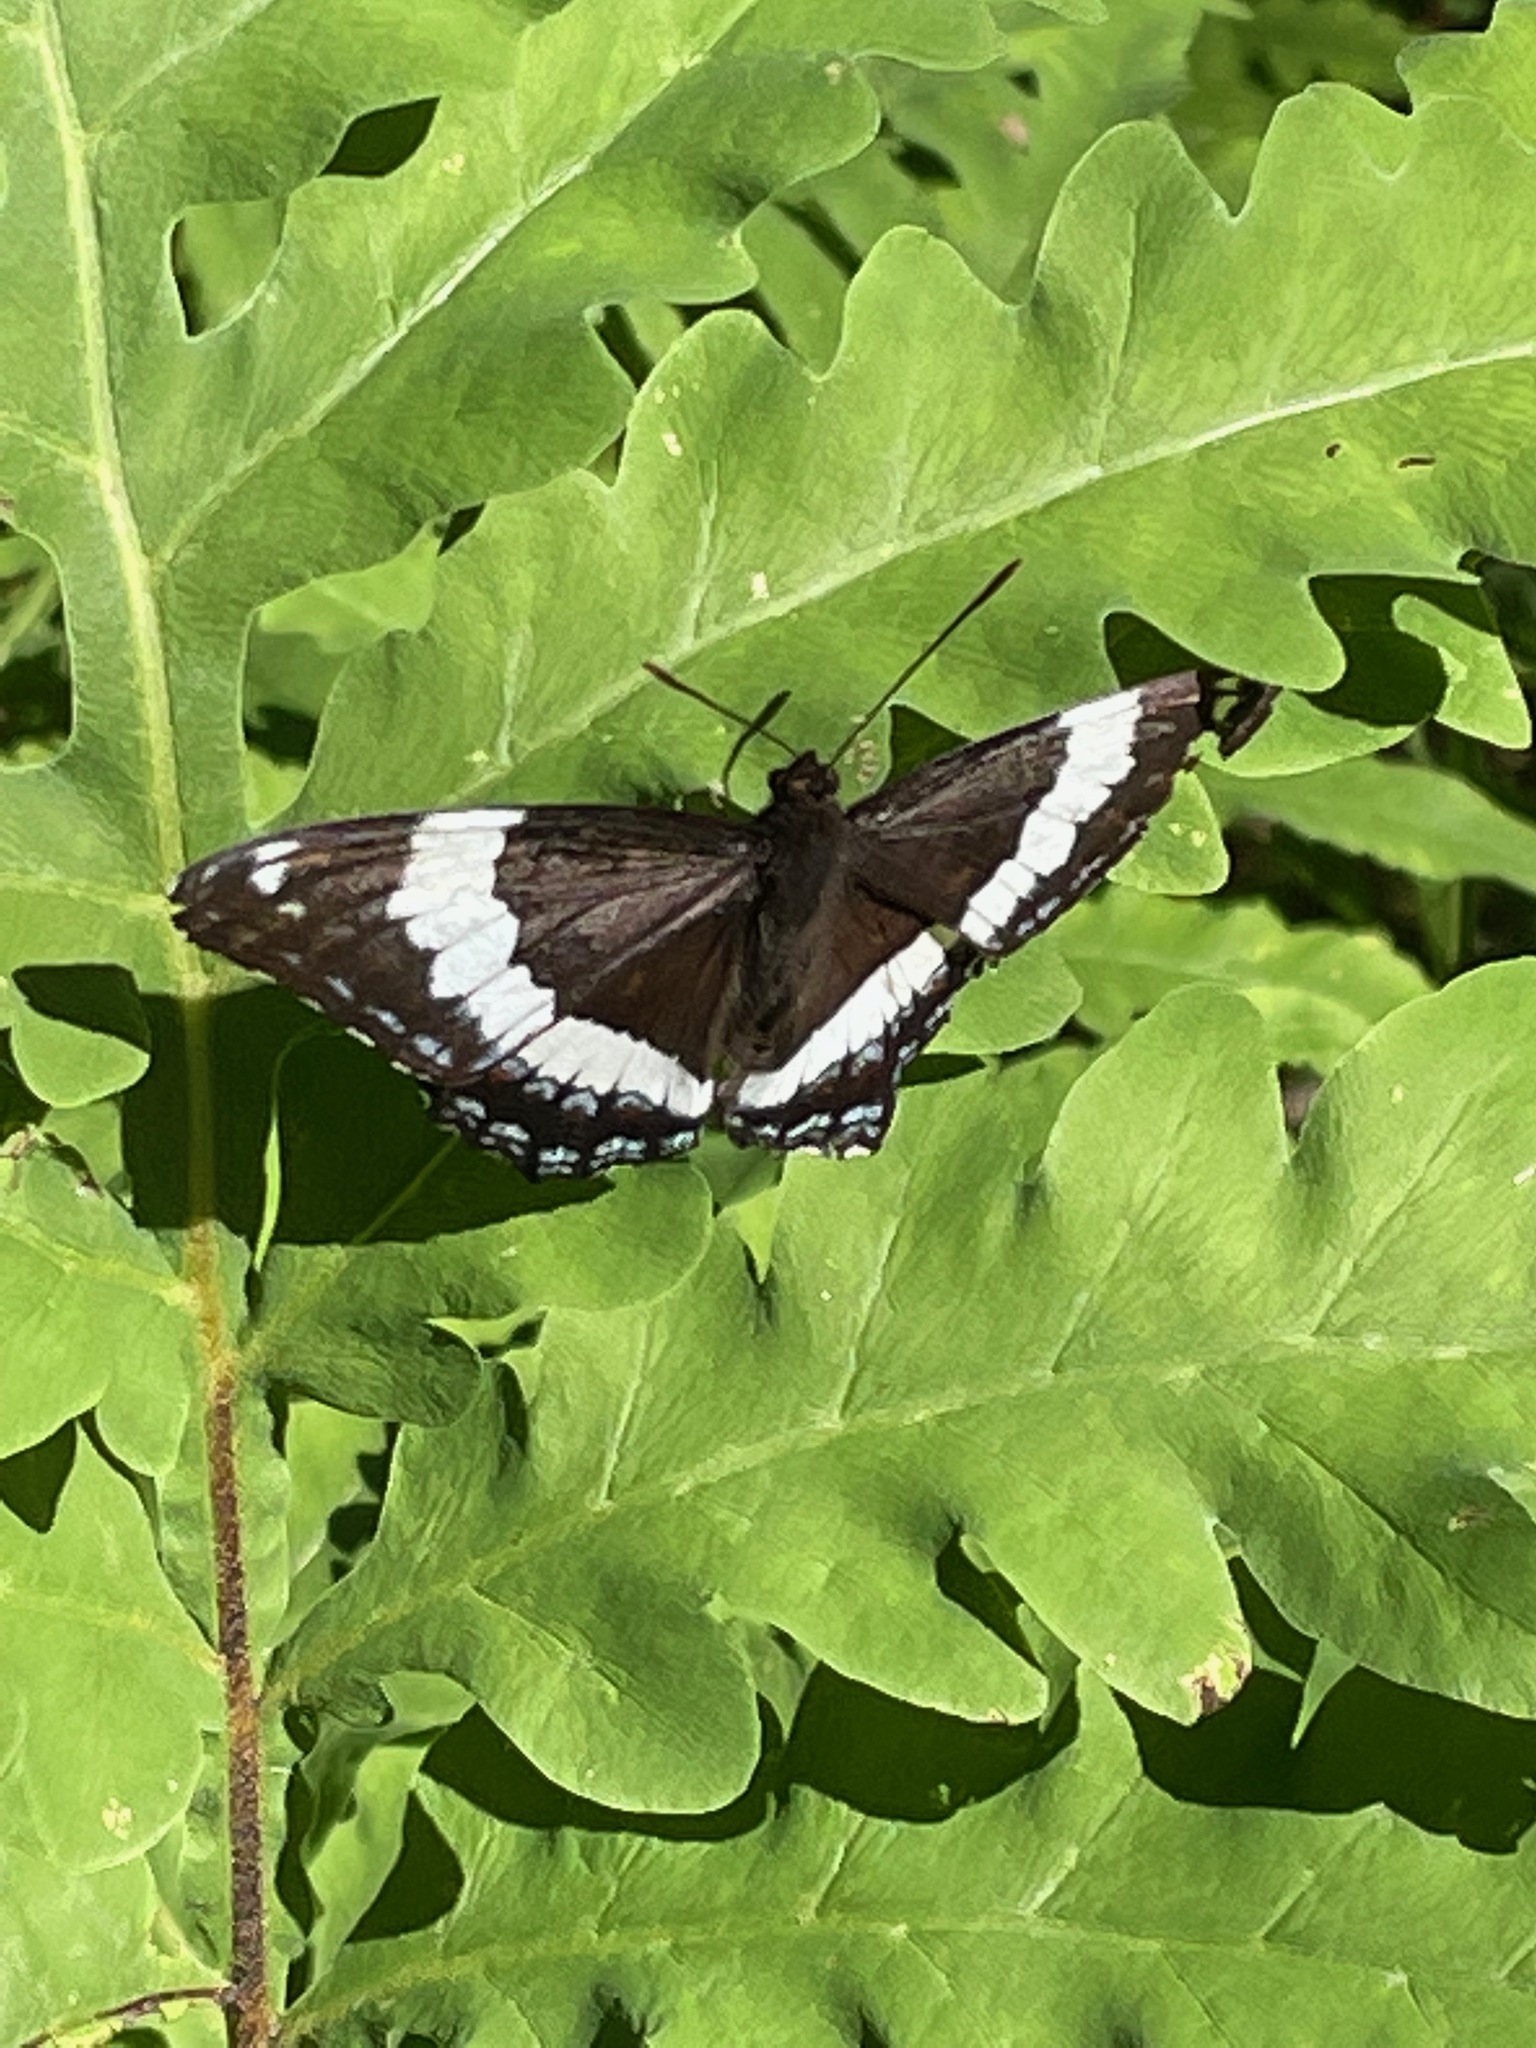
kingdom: Animalia
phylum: Arthropoda
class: Insecta
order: Lepidoptera
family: Nymphalidae
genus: Limenitis
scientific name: Limenitis arthemis
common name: Red-spotted admiral
